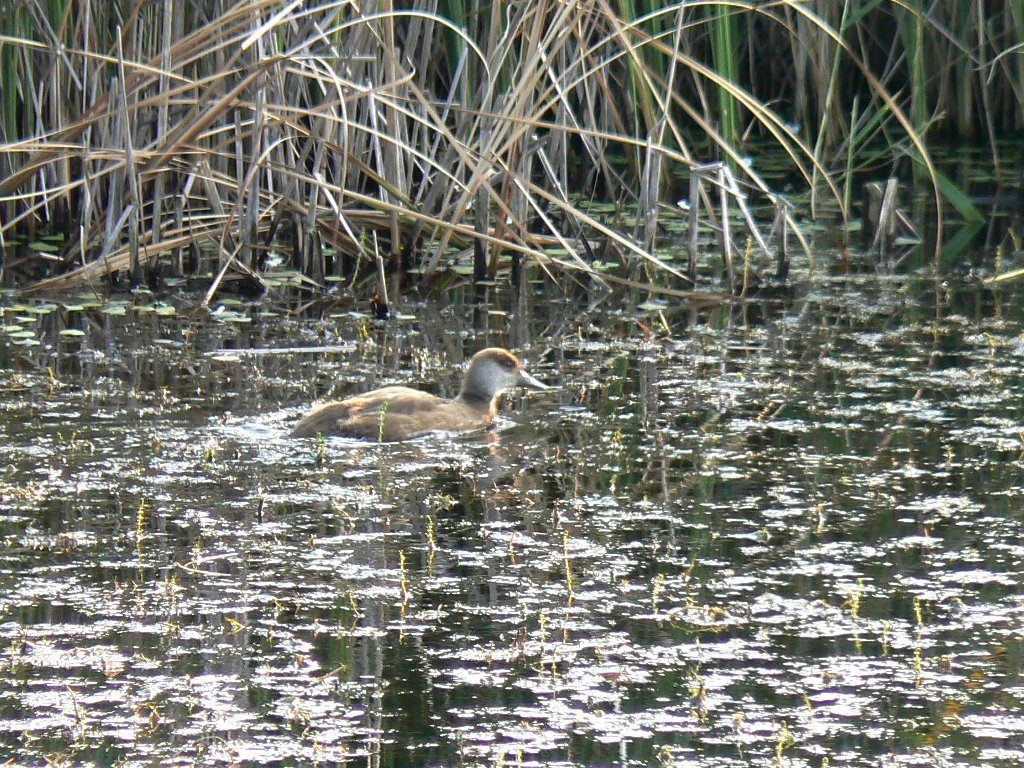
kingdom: Animalia
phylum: Chordata
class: Aves
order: Anseriformes
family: Anatidae
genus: Netta
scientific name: Netta rufina
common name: Red-crested pochard
